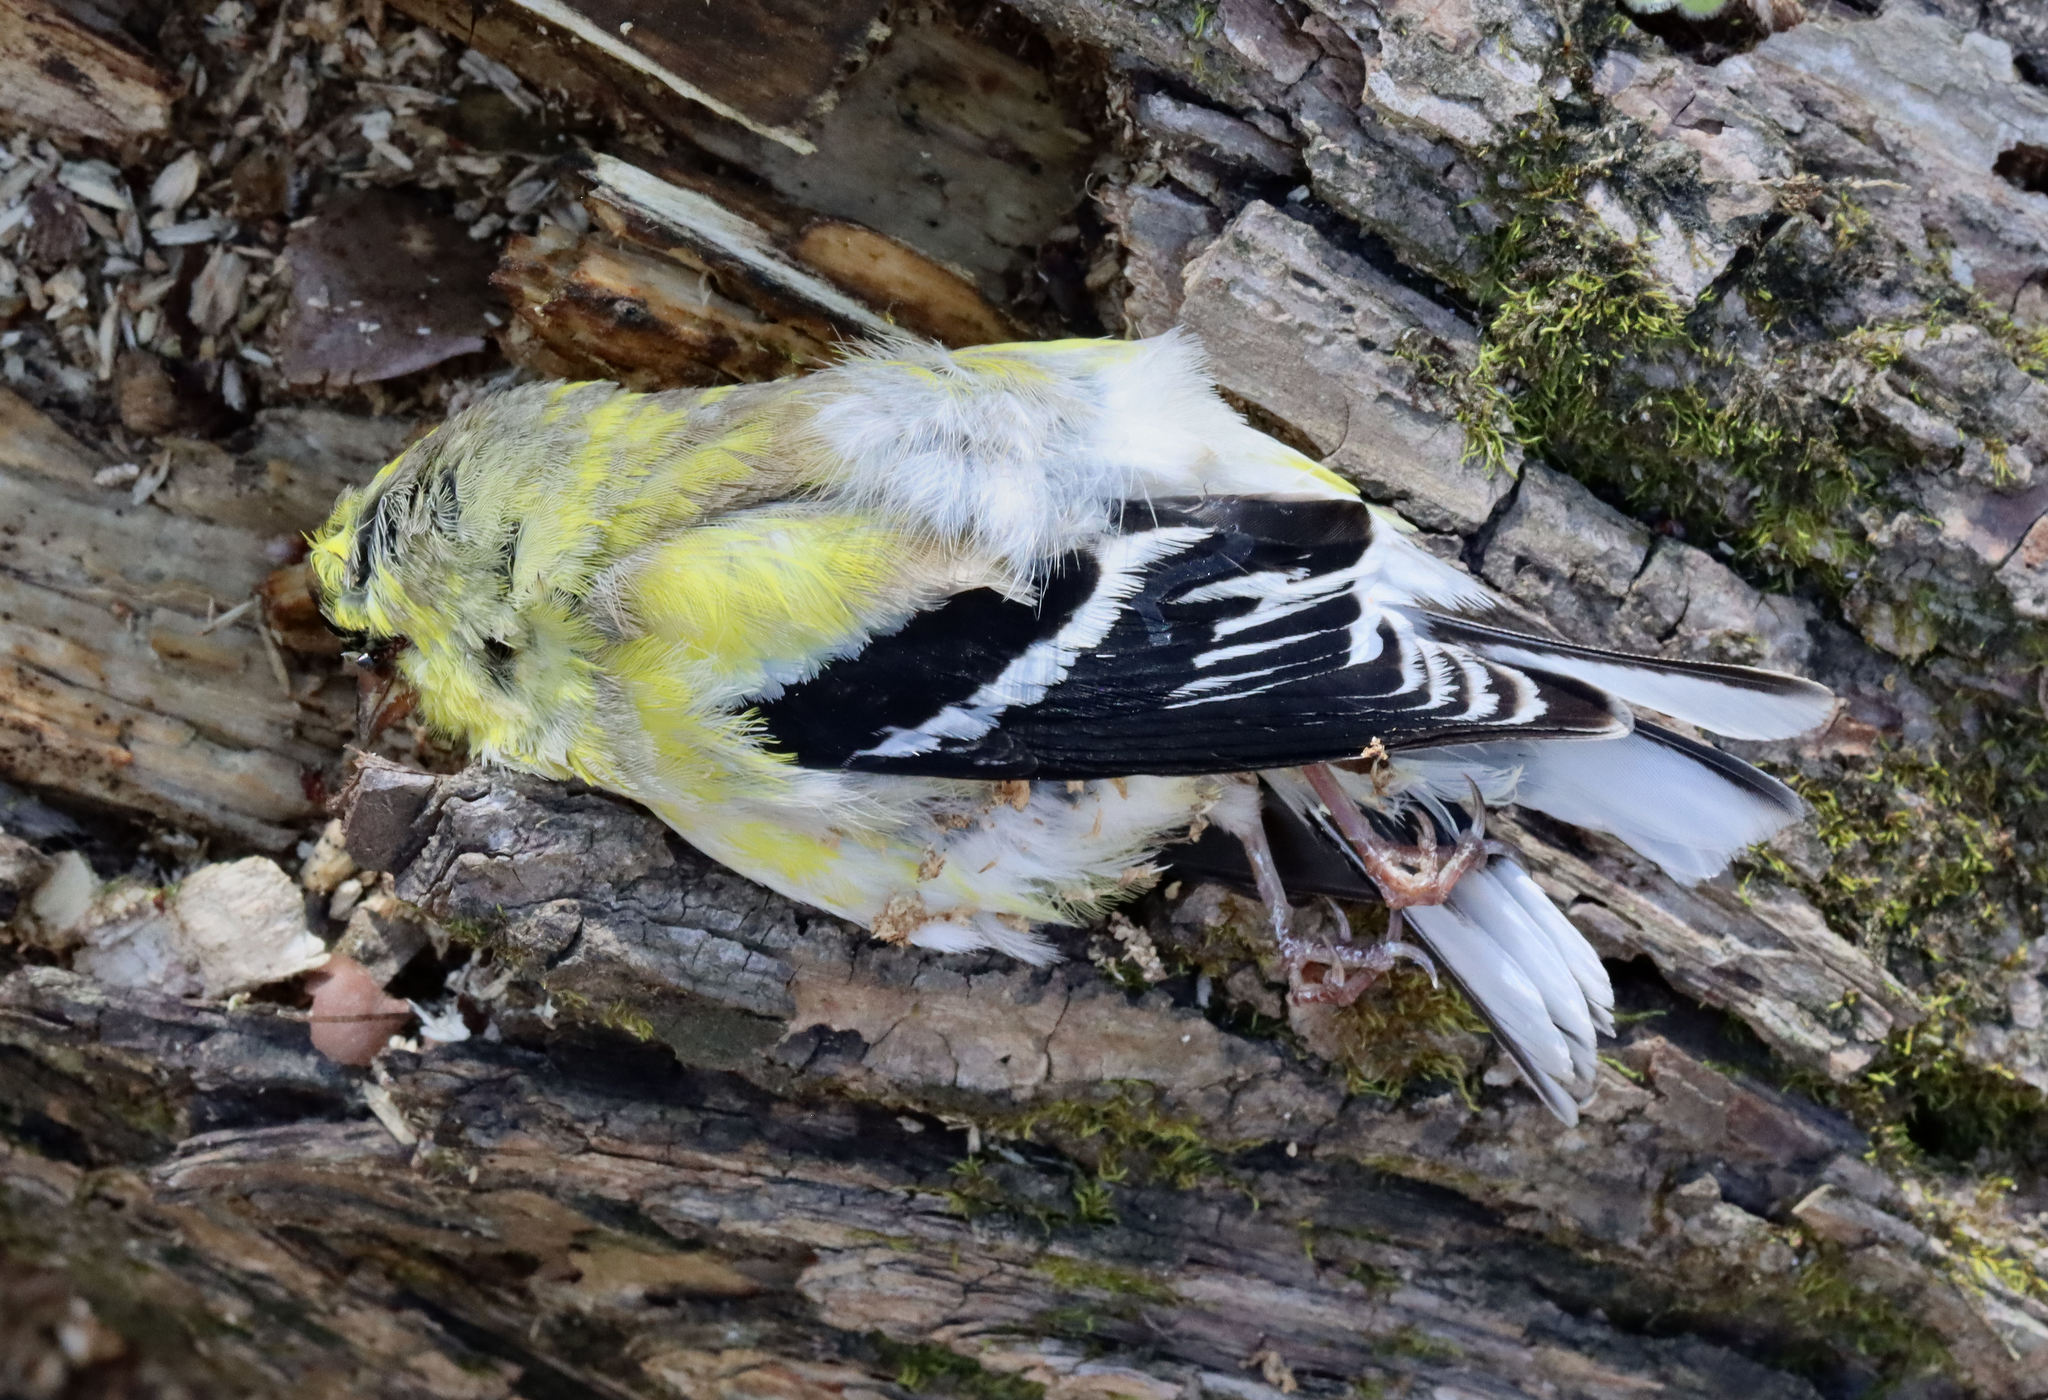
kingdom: Animalia
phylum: Chordata
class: Aves
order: Passeriformes
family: Fringillidae
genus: Spinus
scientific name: Spinus tristis
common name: American goldfinch
